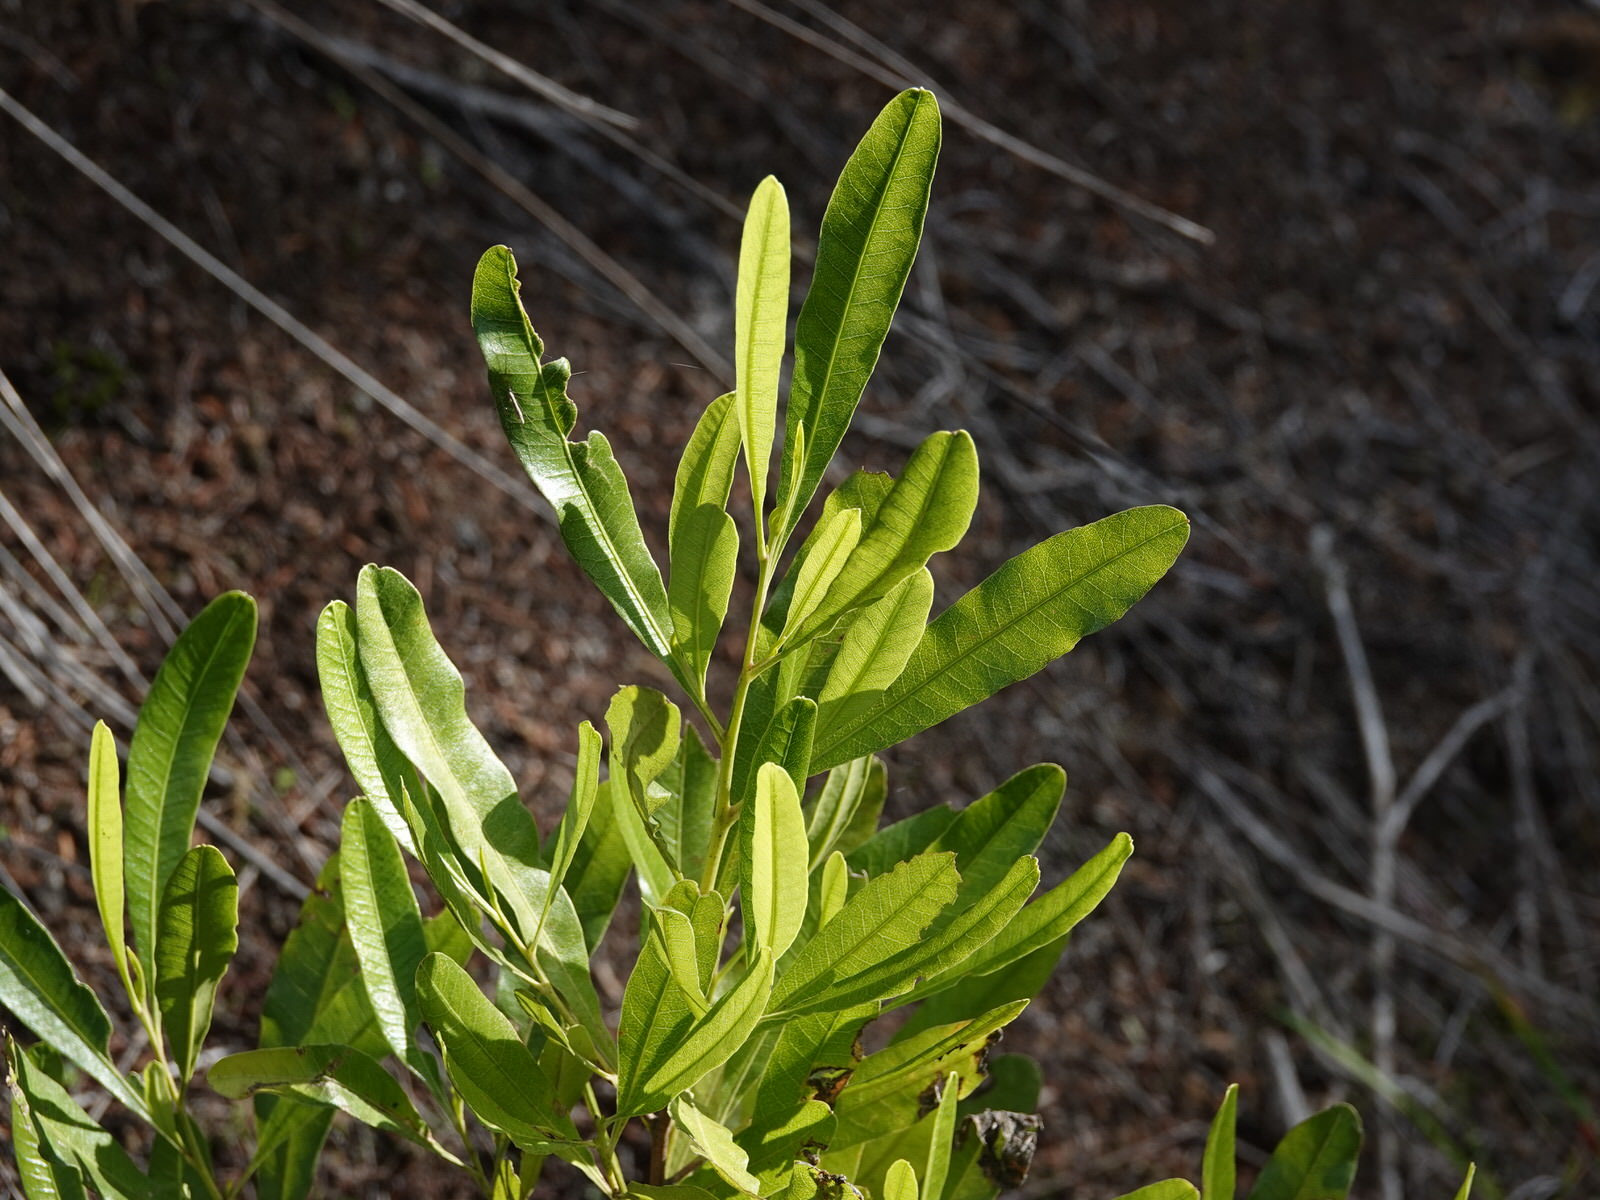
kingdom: Plantae
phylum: Tracheophyta
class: Magnoliopsida
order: Sapindales
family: Sapindaceae
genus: Dodonaea
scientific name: Dodonaea viscosa
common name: Hopbush
